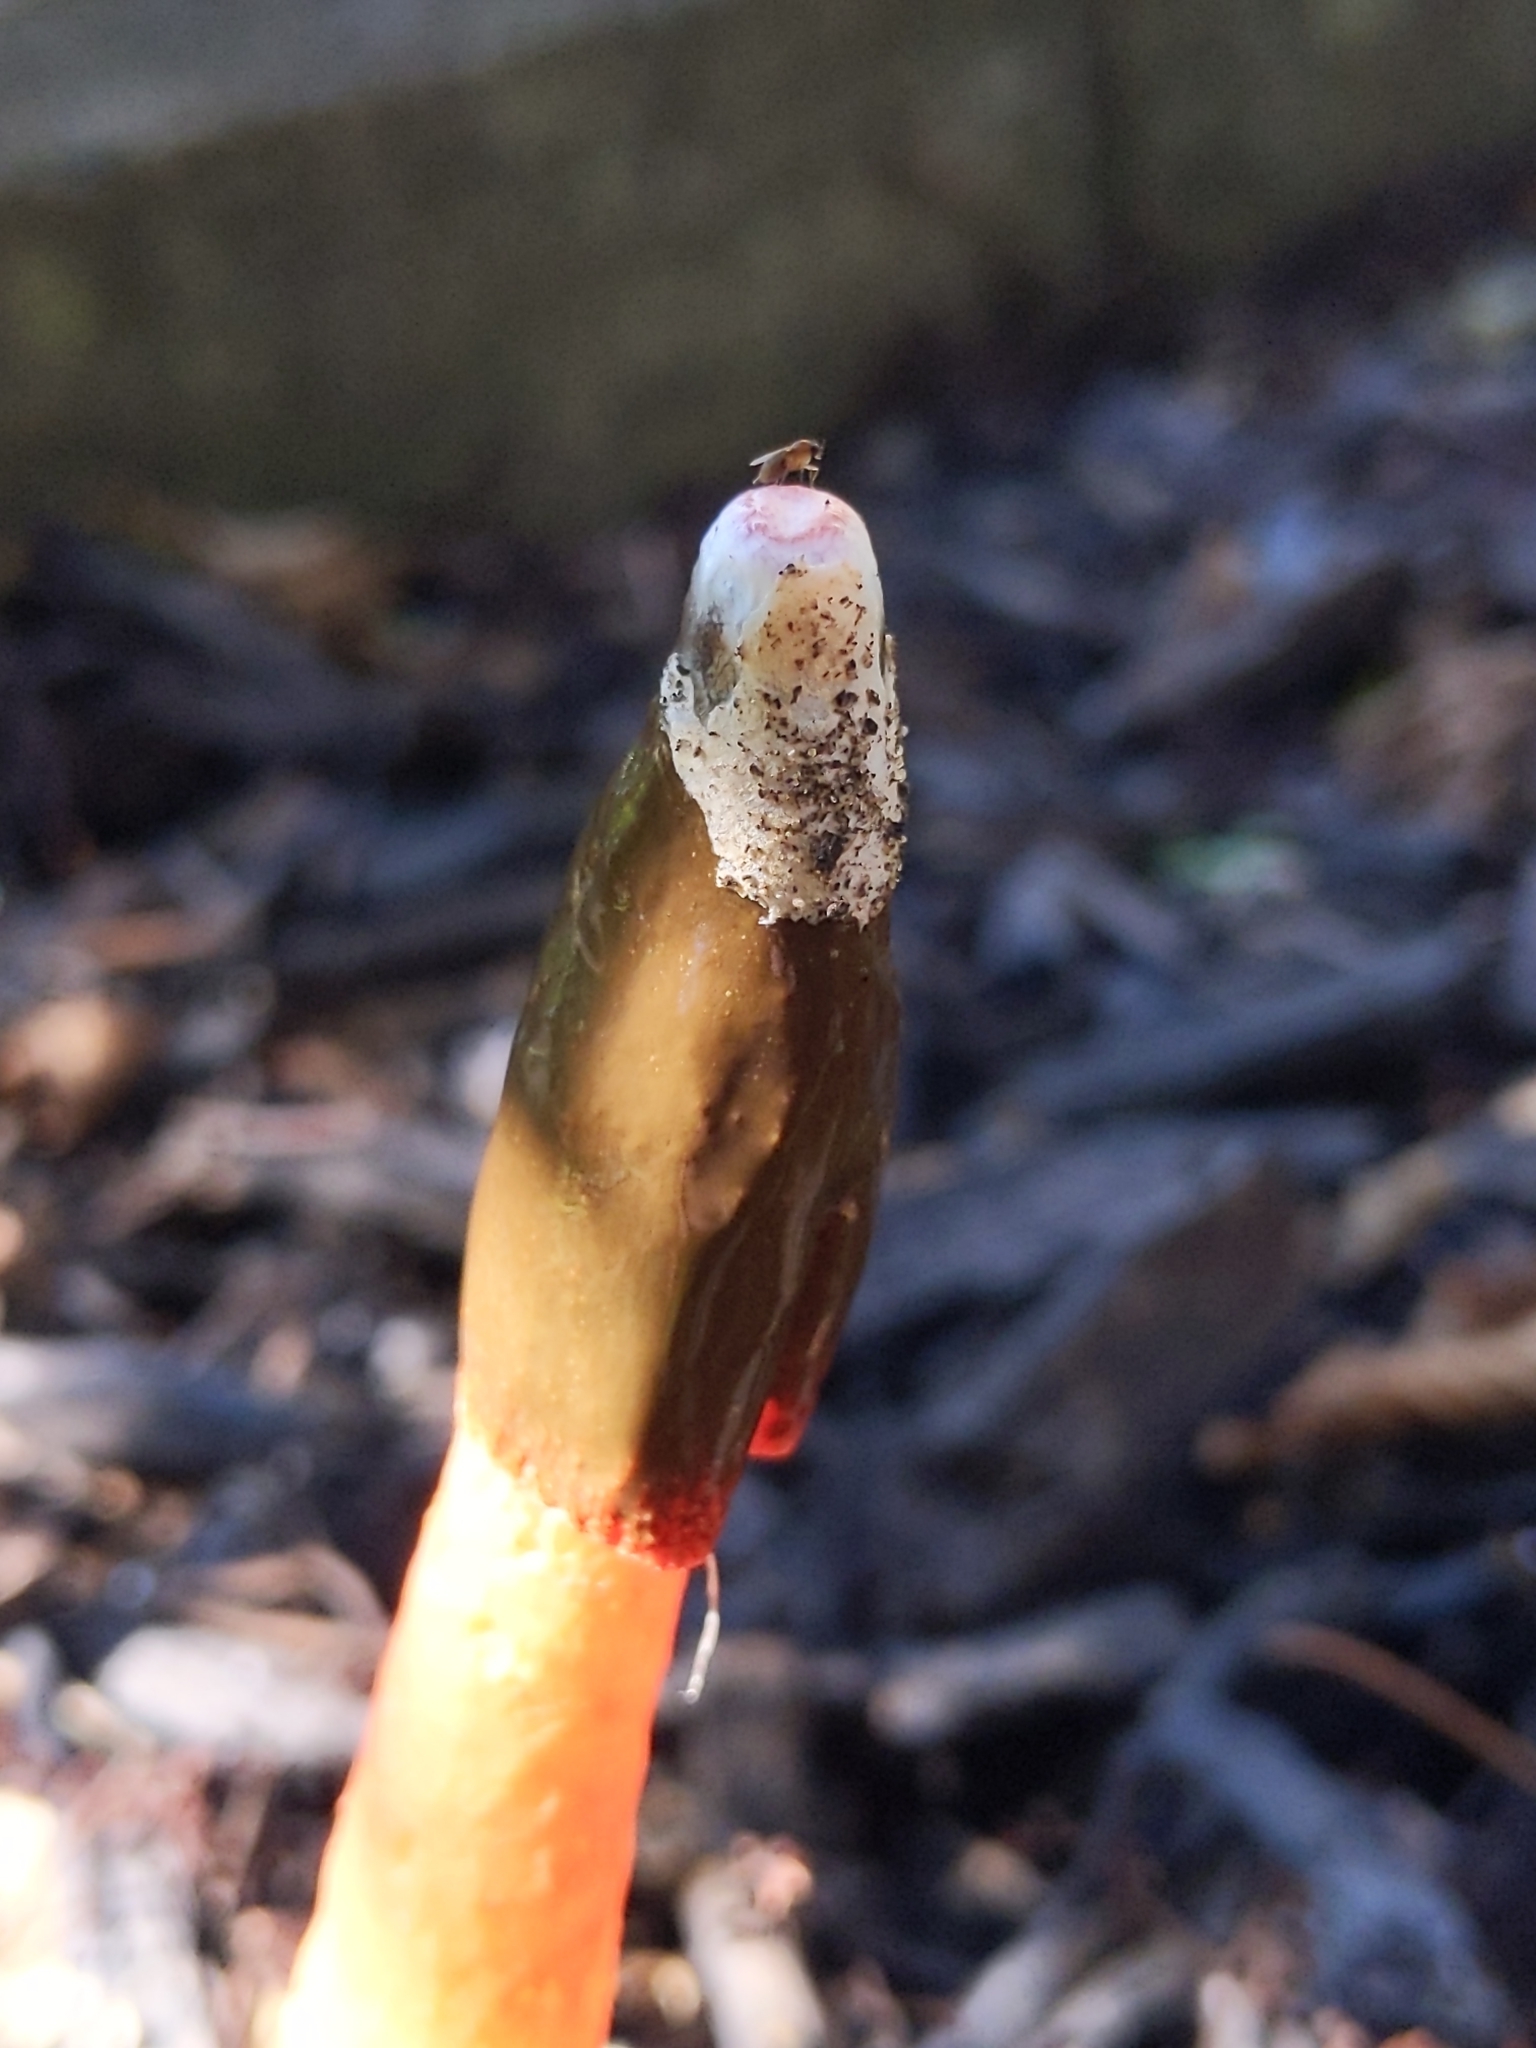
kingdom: Fungi
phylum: Basidiomycota
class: Agaricomycetes
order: Phallales
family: Phallaceae
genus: Phallus
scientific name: Phallus rugulosus
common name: Wrinkly stinkhorn
